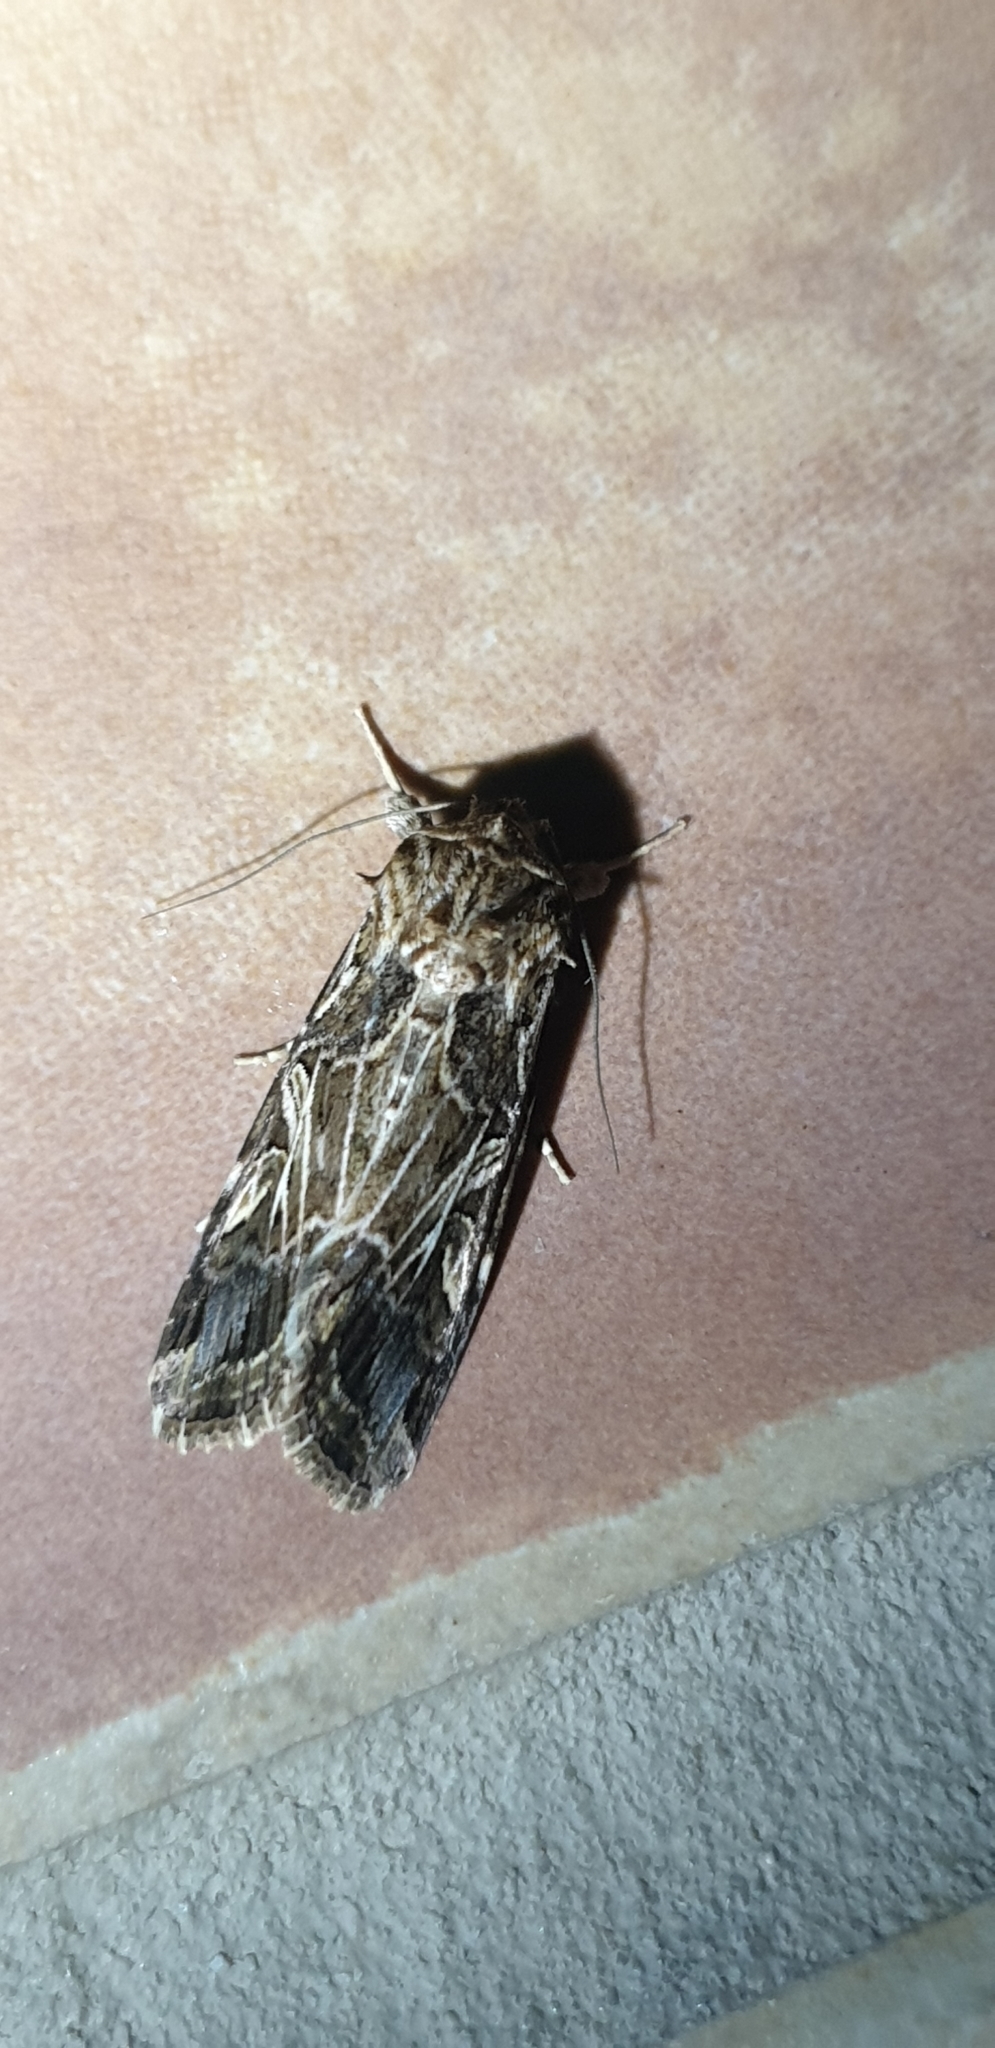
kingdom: Animalia
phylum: Arthropoda
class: Insecta
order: Lepidoptera
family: Noctuidae
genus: Spodoptera
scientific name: Spodoptera litura
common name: Asian cotton leafworm
